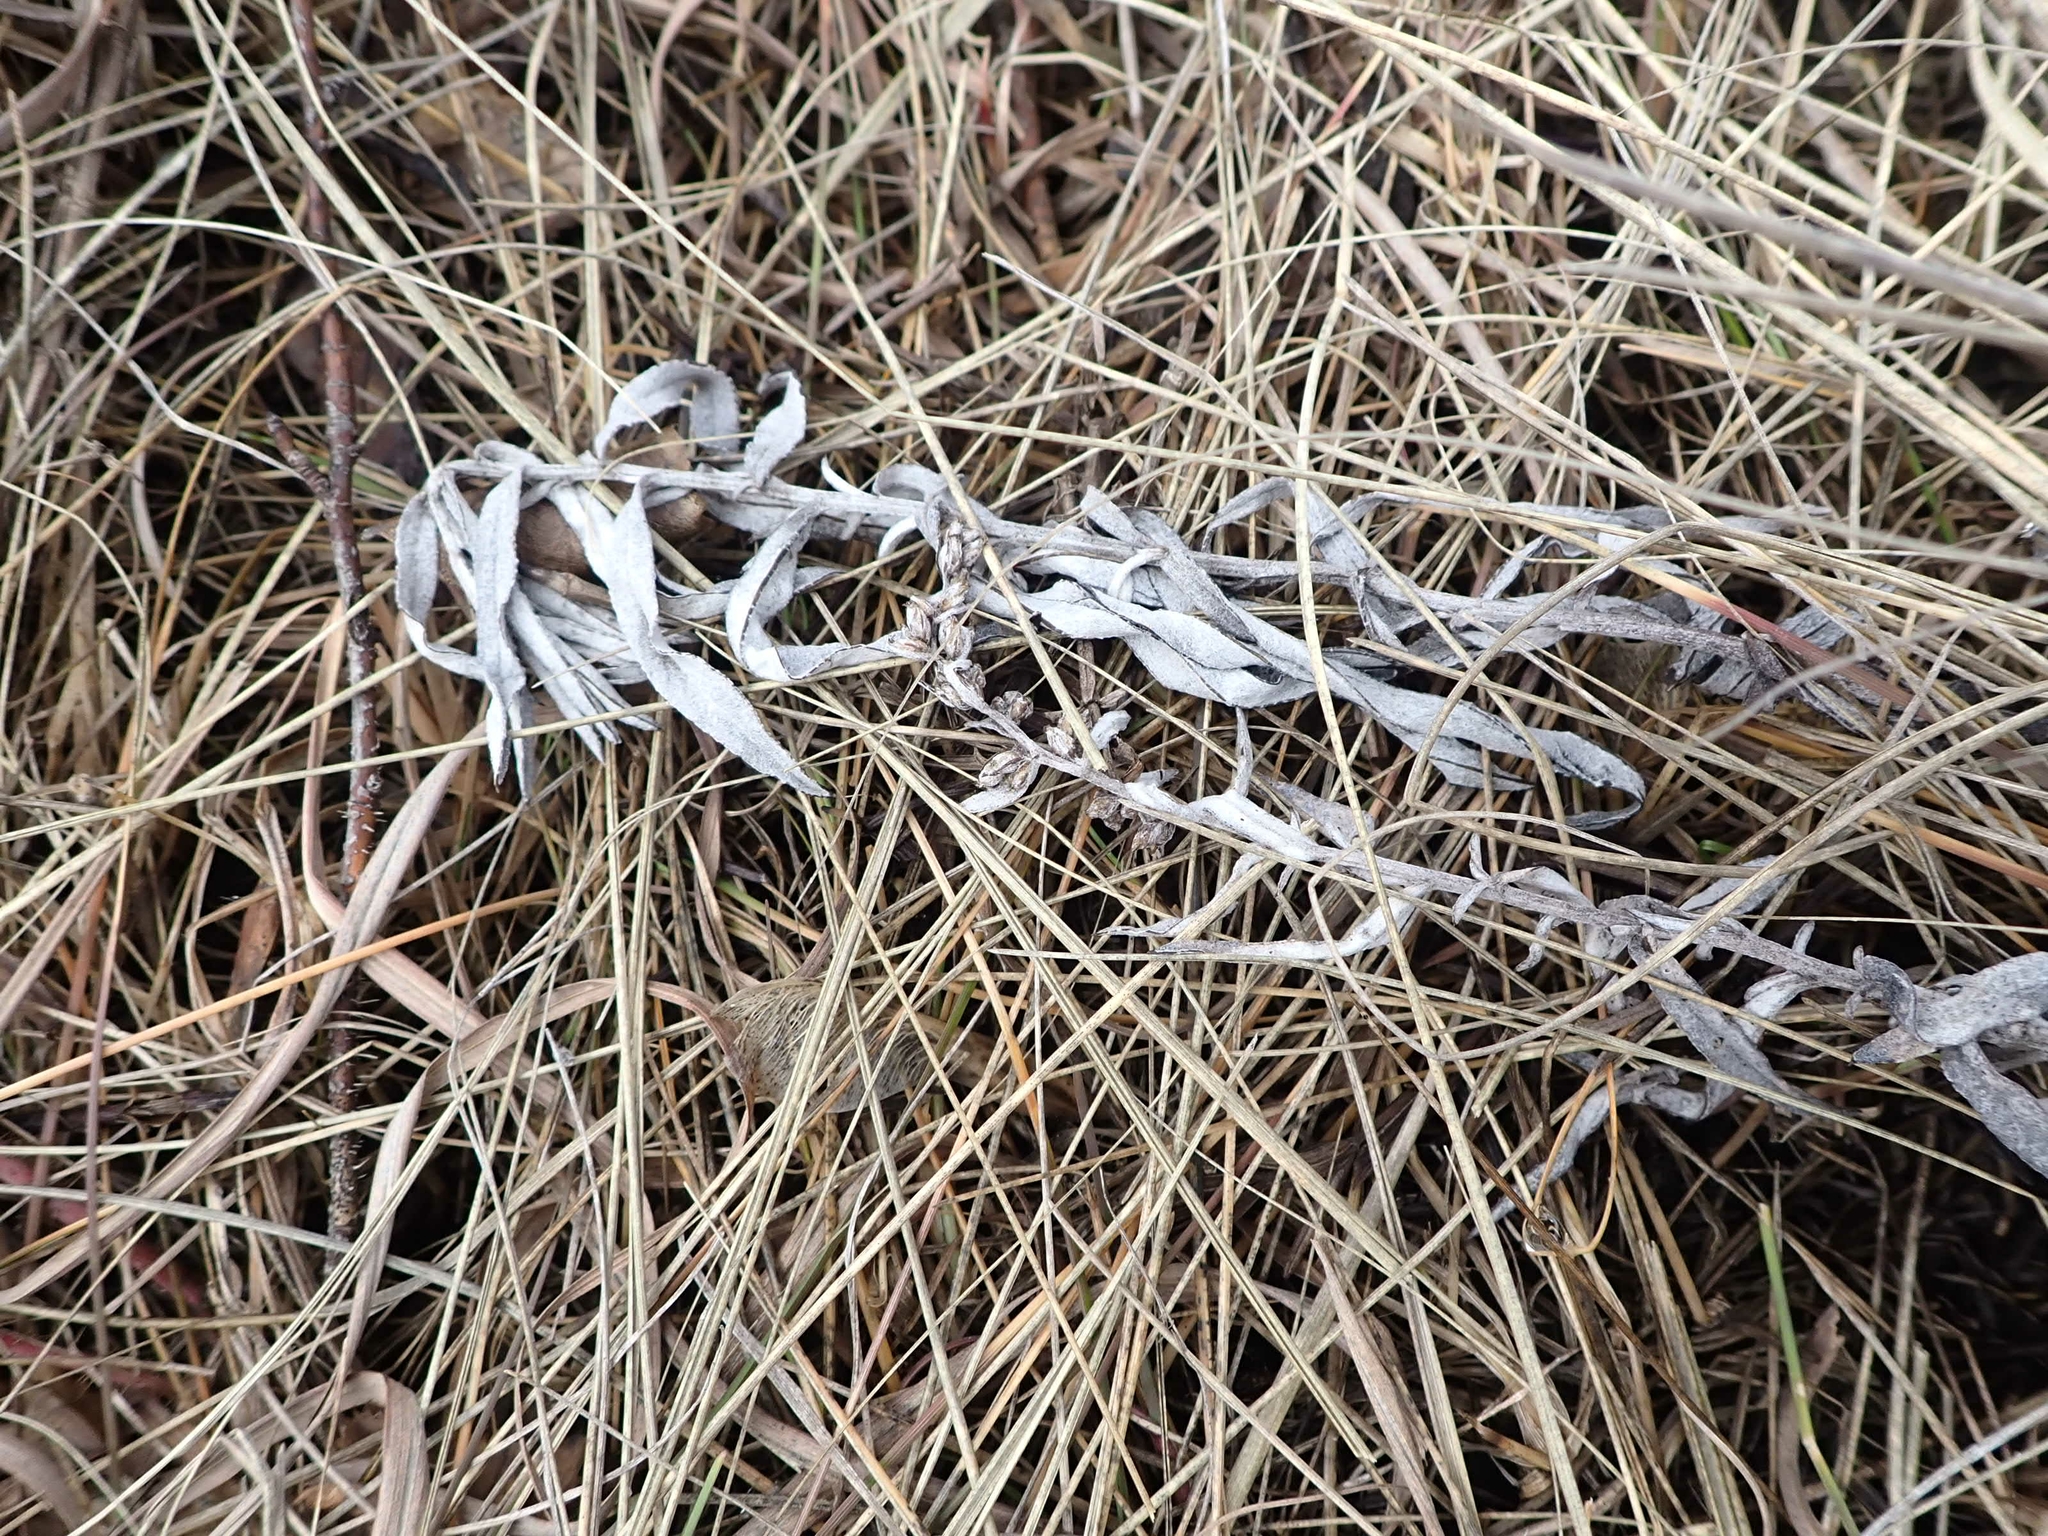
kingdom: Plantae
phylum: Tracheophyta
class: Magnoliopsida
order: Asterales
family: Asteraceae
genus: Artemisia
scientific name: Artemisia ludoviciana
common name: Western mugwort
